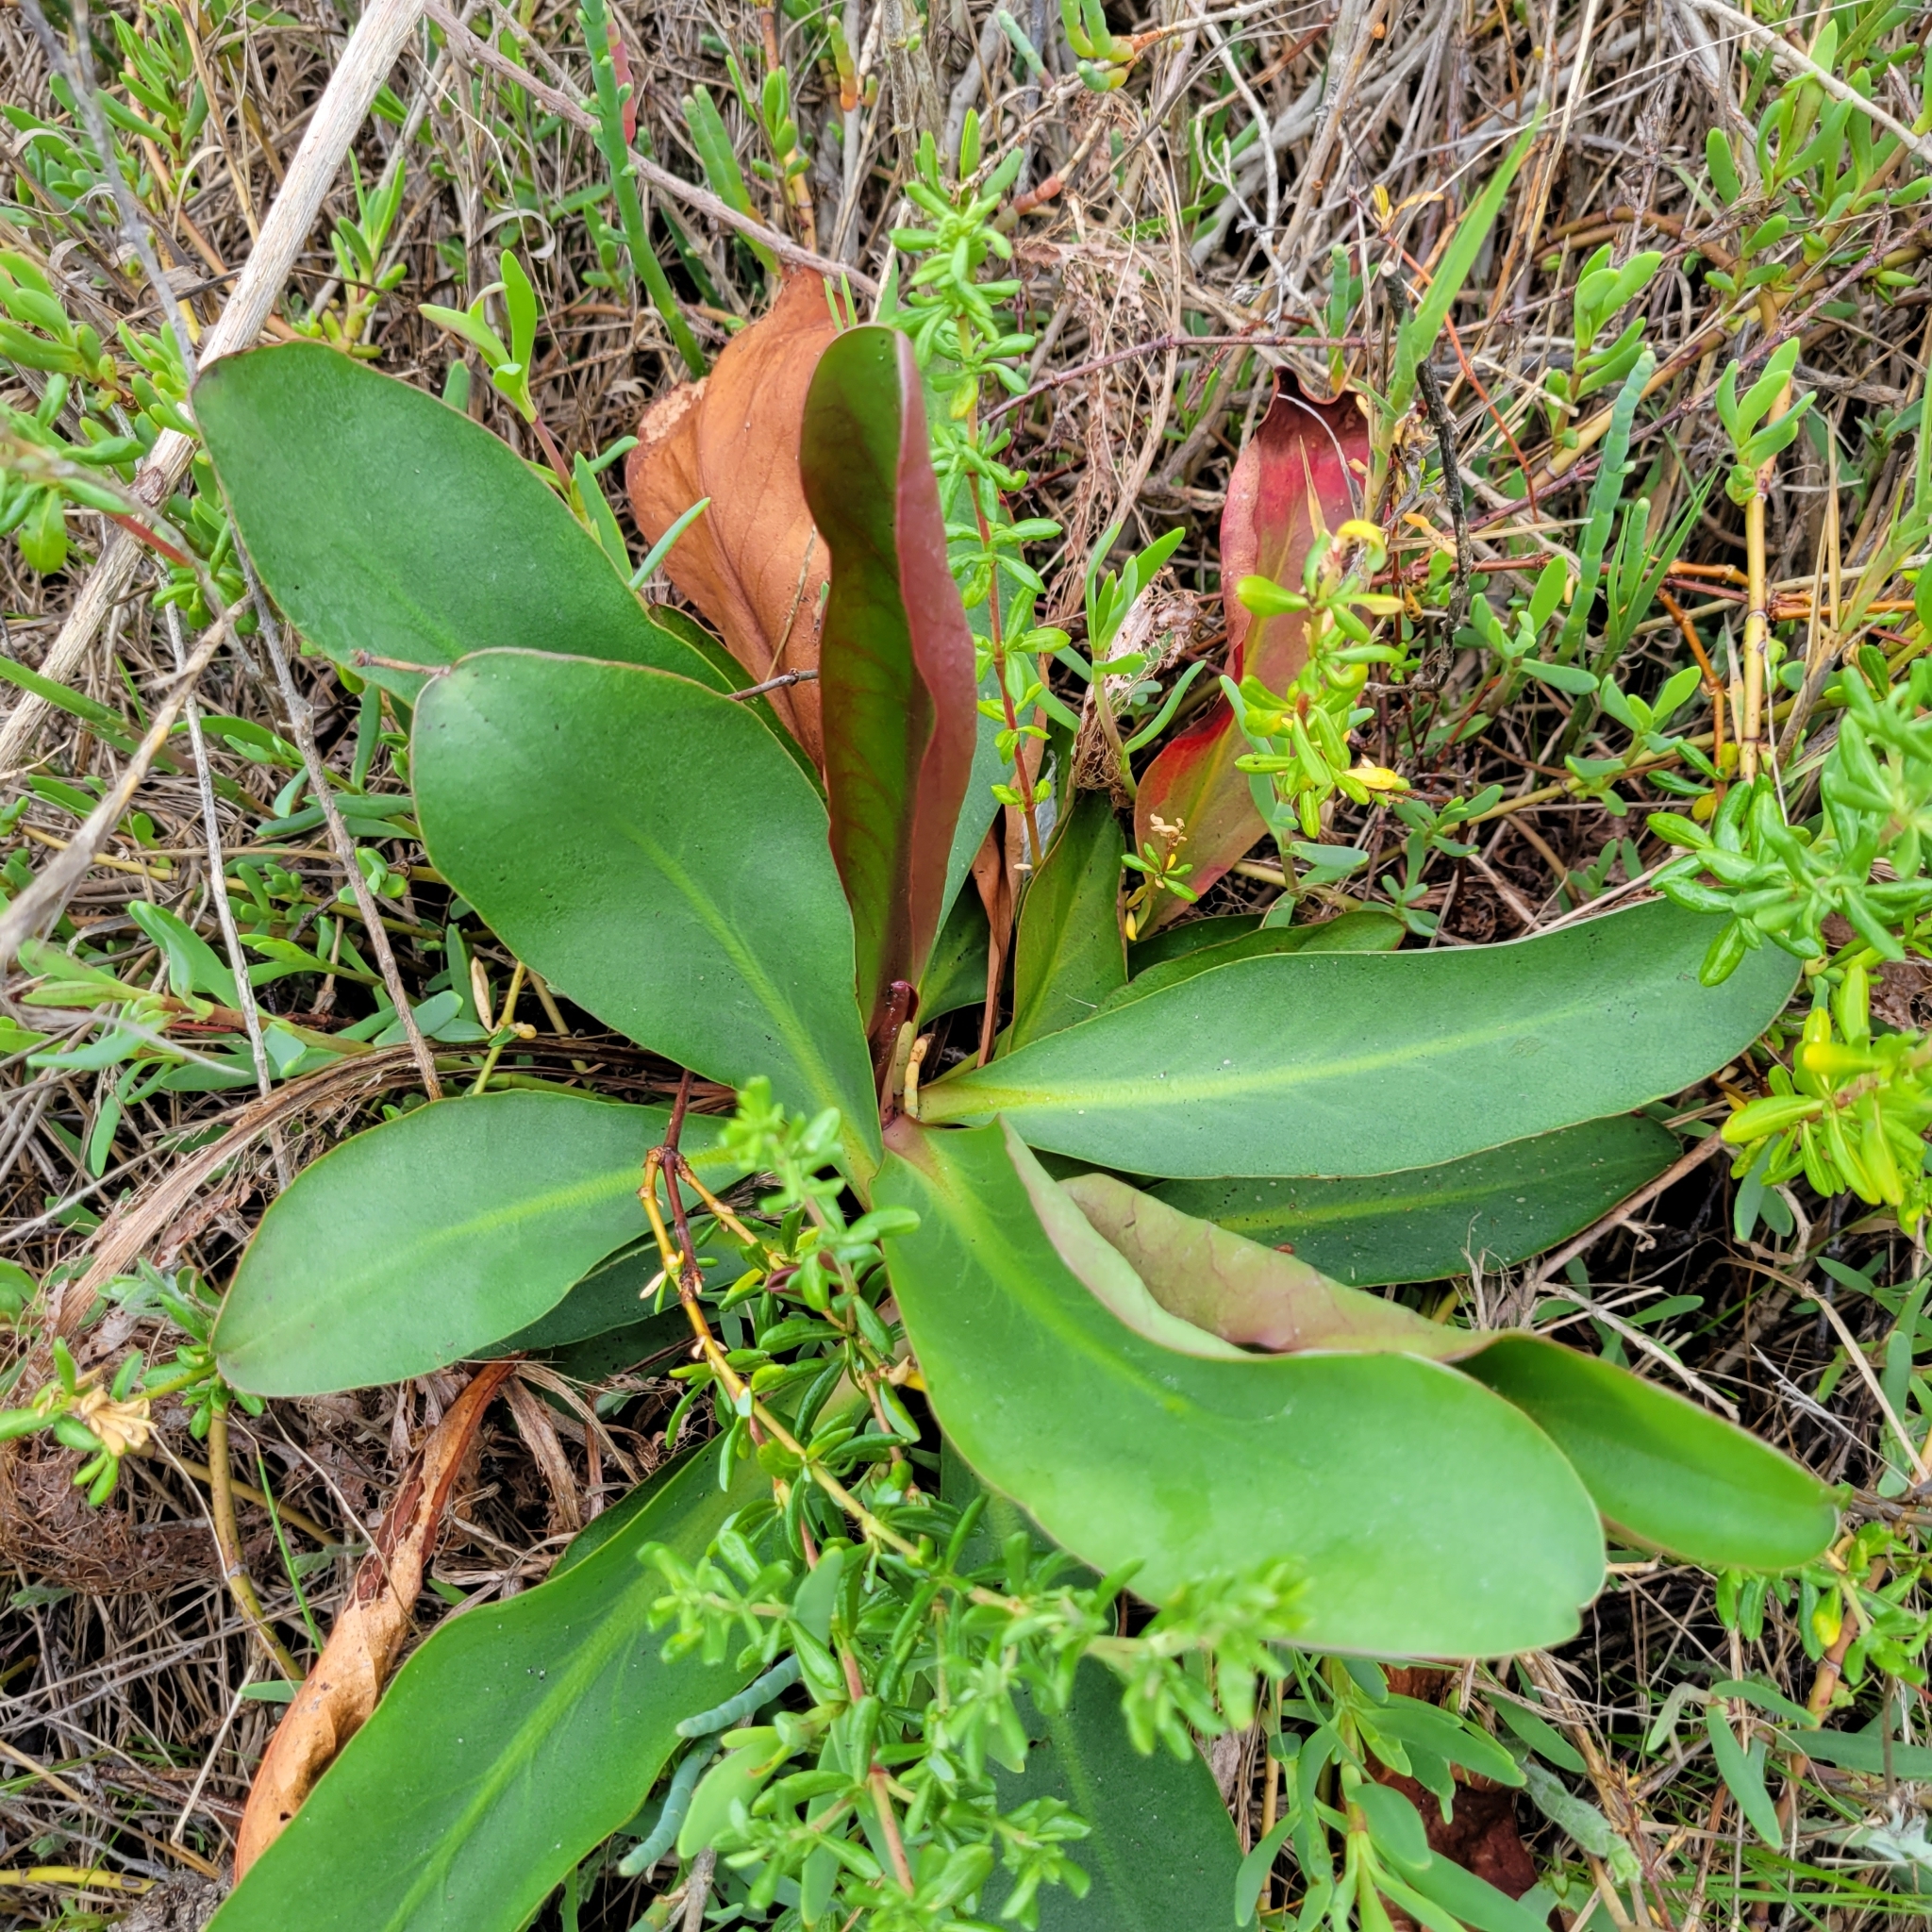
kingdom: Plantae
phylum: Tracheophyta
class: Magnoliopsida
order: Caryophyllales
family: Plumbaginaceae
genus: Limonium
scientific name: Limonium californicum
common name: Marsh-rosemary
